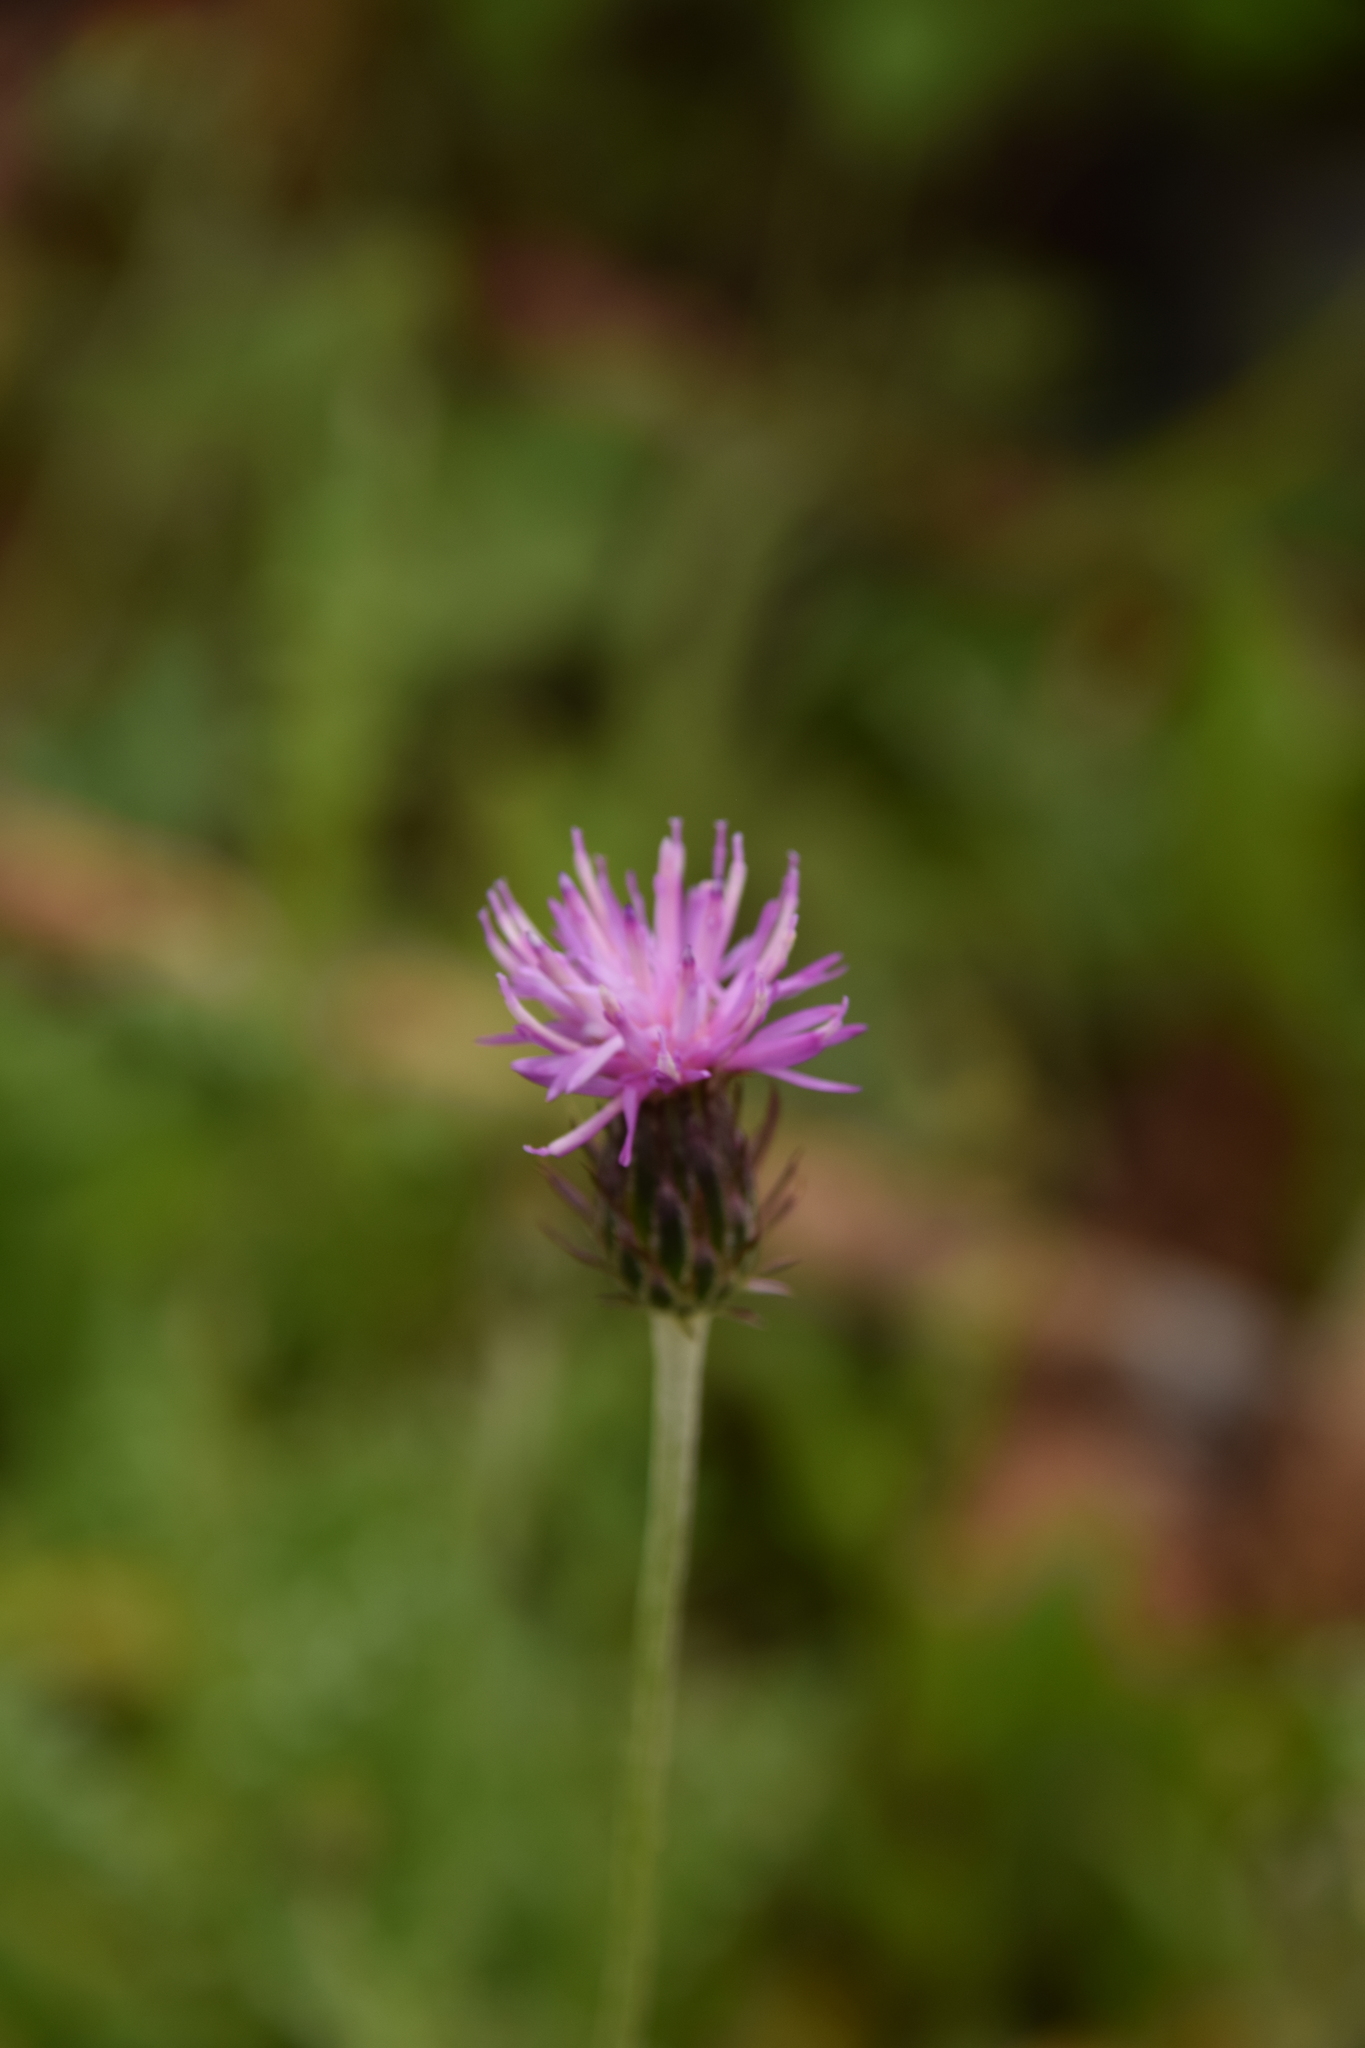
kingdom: Plantae
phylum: Tracheophyta
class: Magnoliopsida
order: Asterales
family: Asteraceae
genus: Carduus
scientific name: Carduus argentatus
